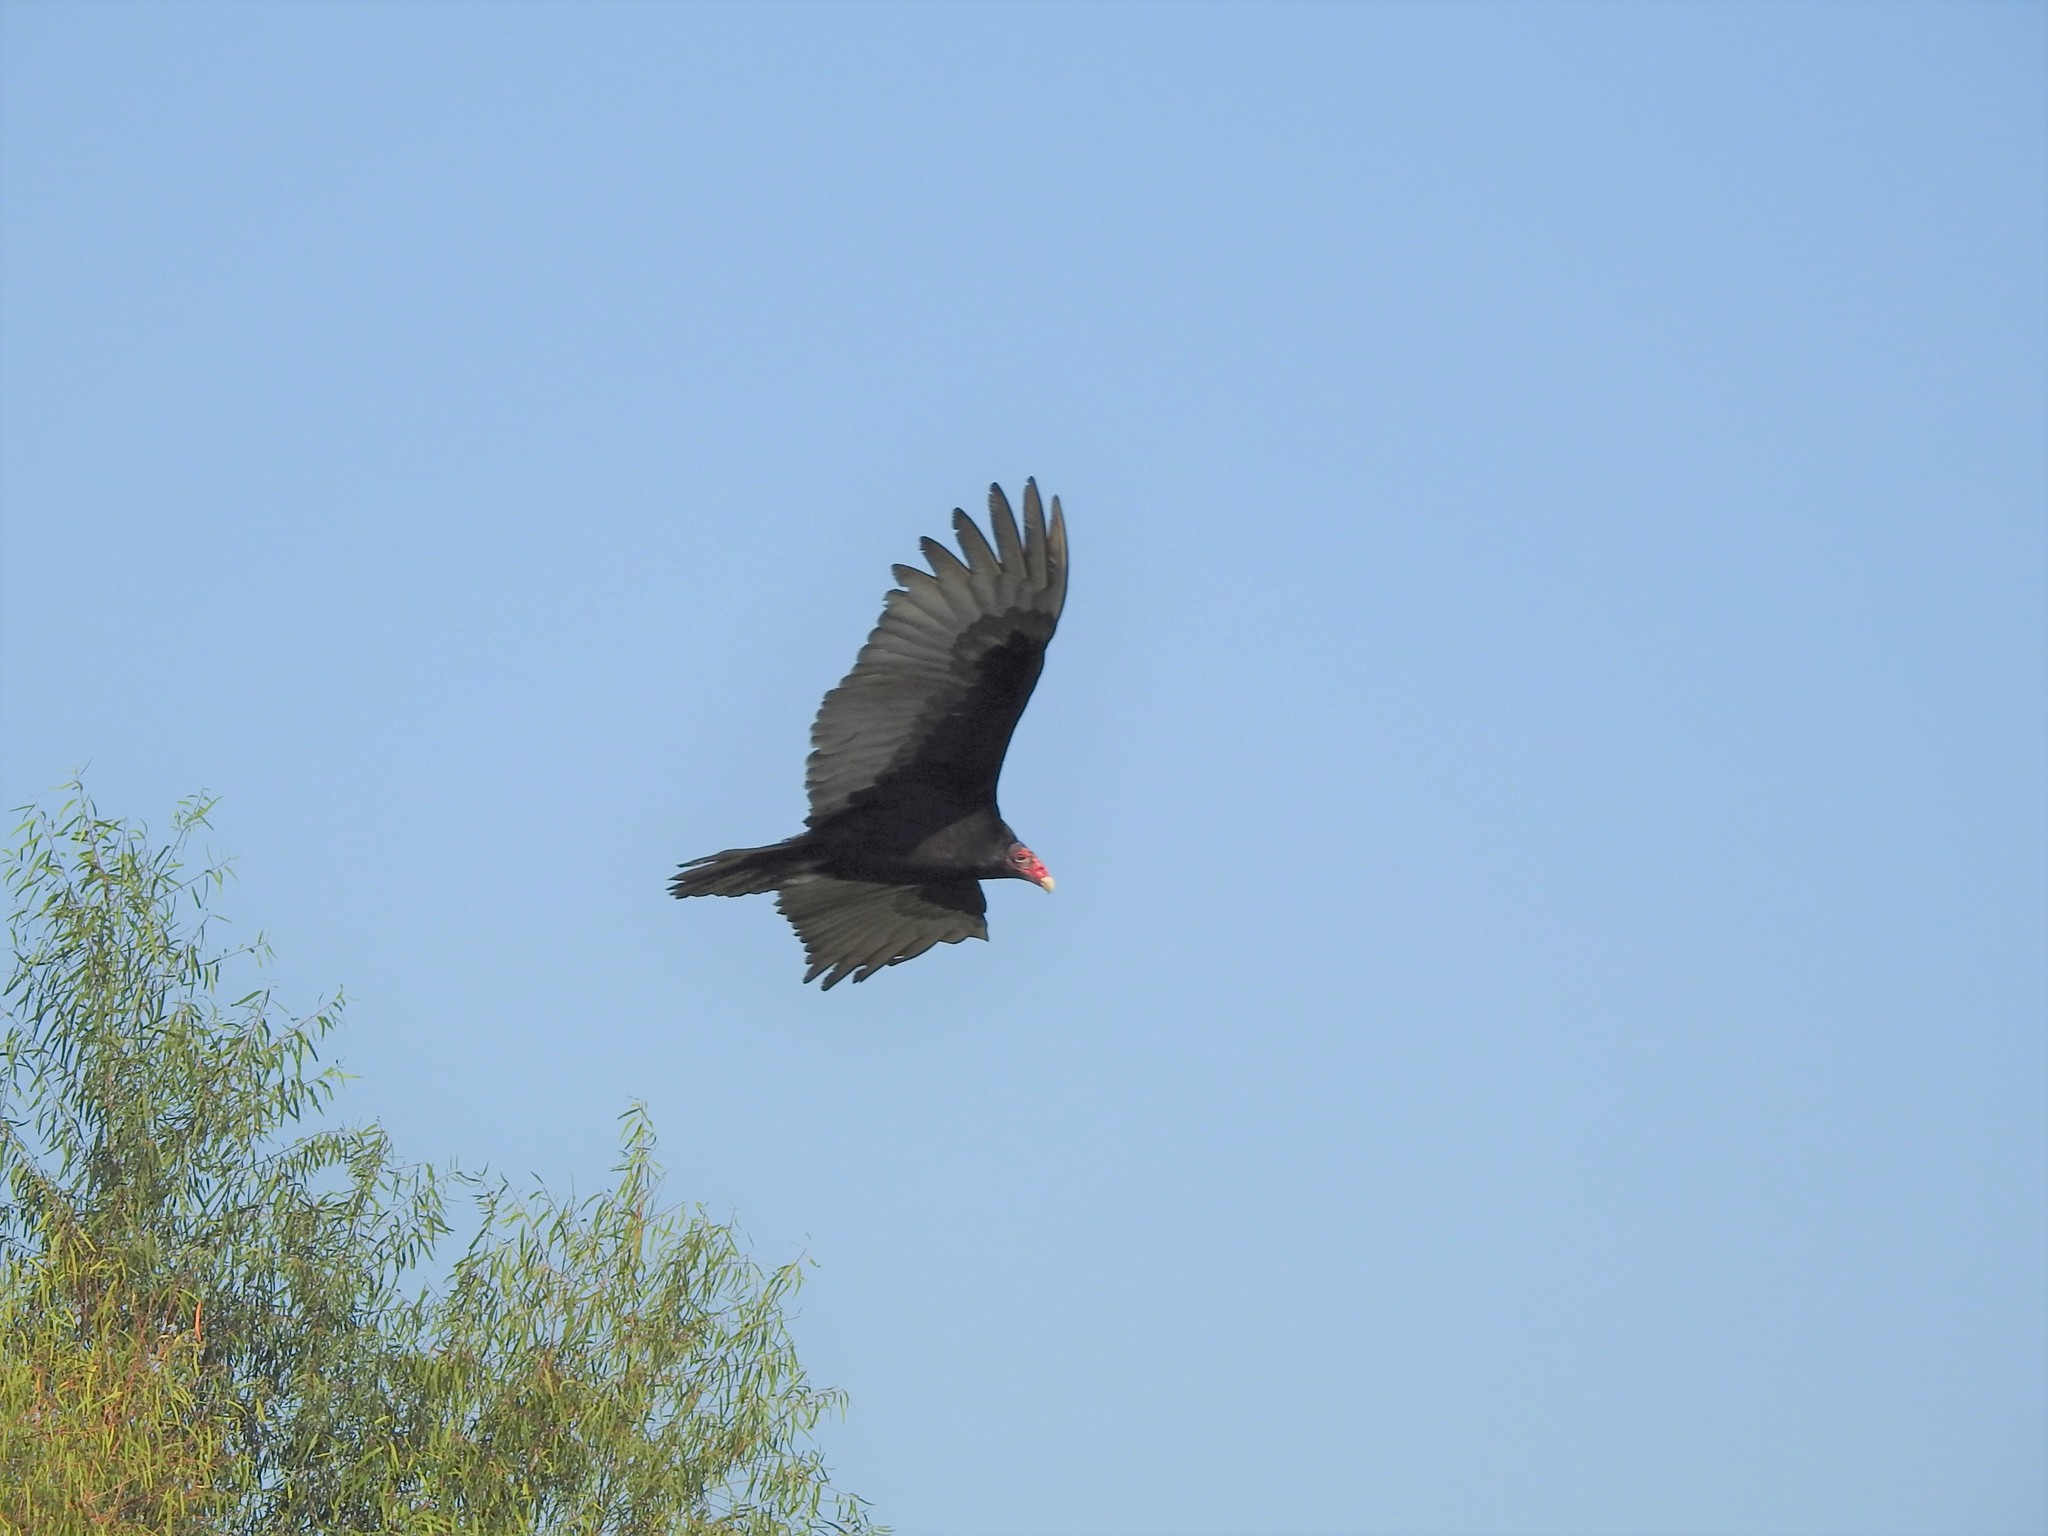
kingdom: Animalia
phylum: Chordata
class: Aves
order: Accipitriformes
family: Cathartidae
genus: Cathartes
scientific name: Cathartes aura
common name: Turkey vulture
